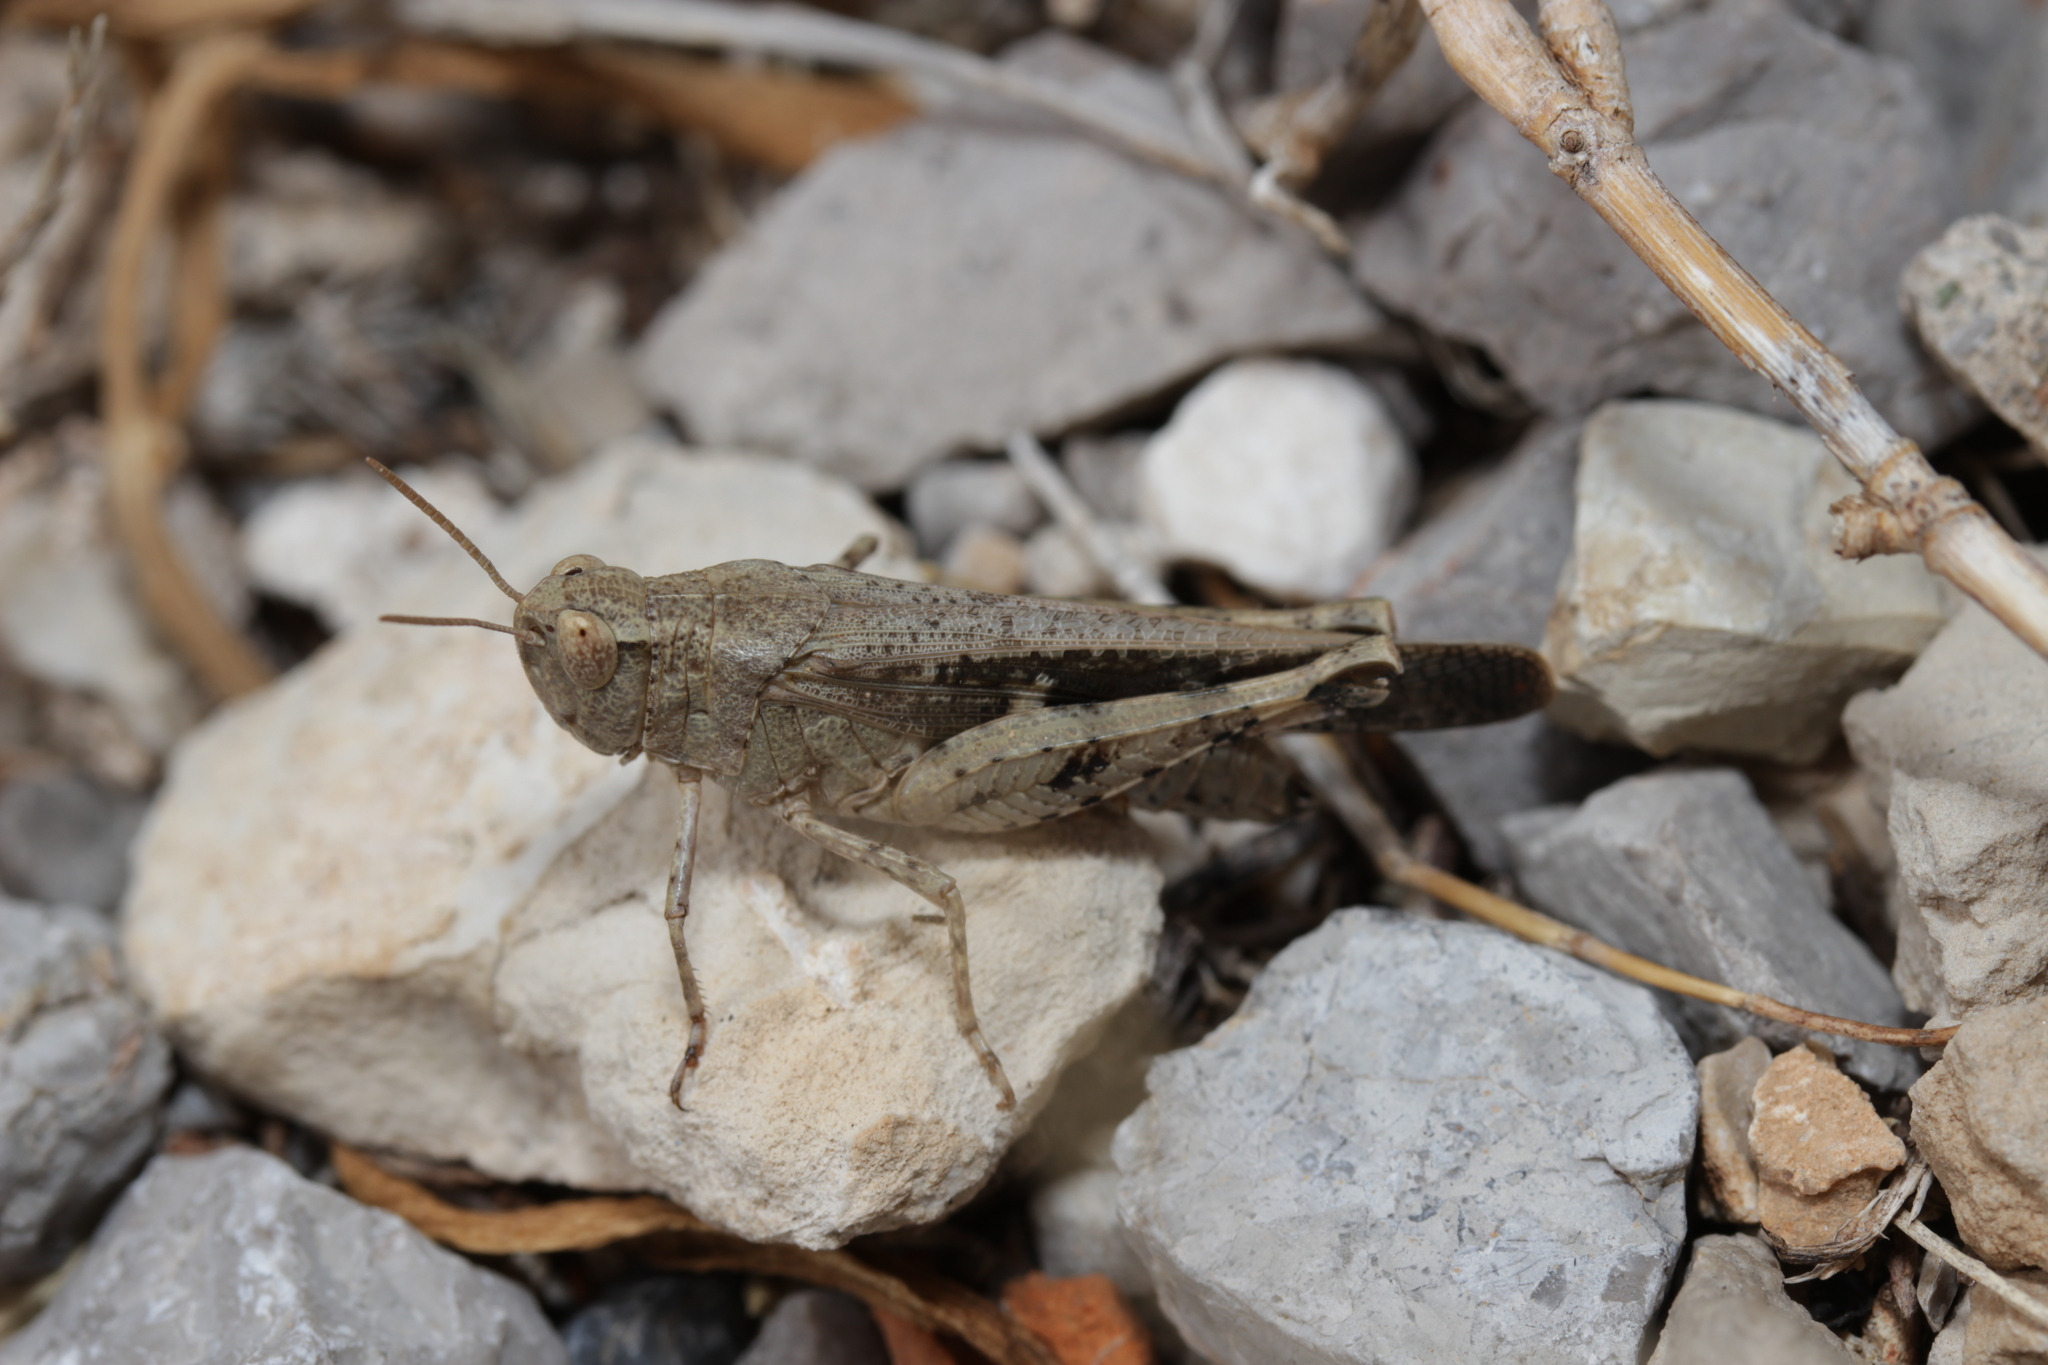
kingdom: Animalia
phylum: Arthropoda
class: Insecta
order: Orthoptera
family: Acrididae
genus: Aiolopus
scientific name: Aiolopus strepens
